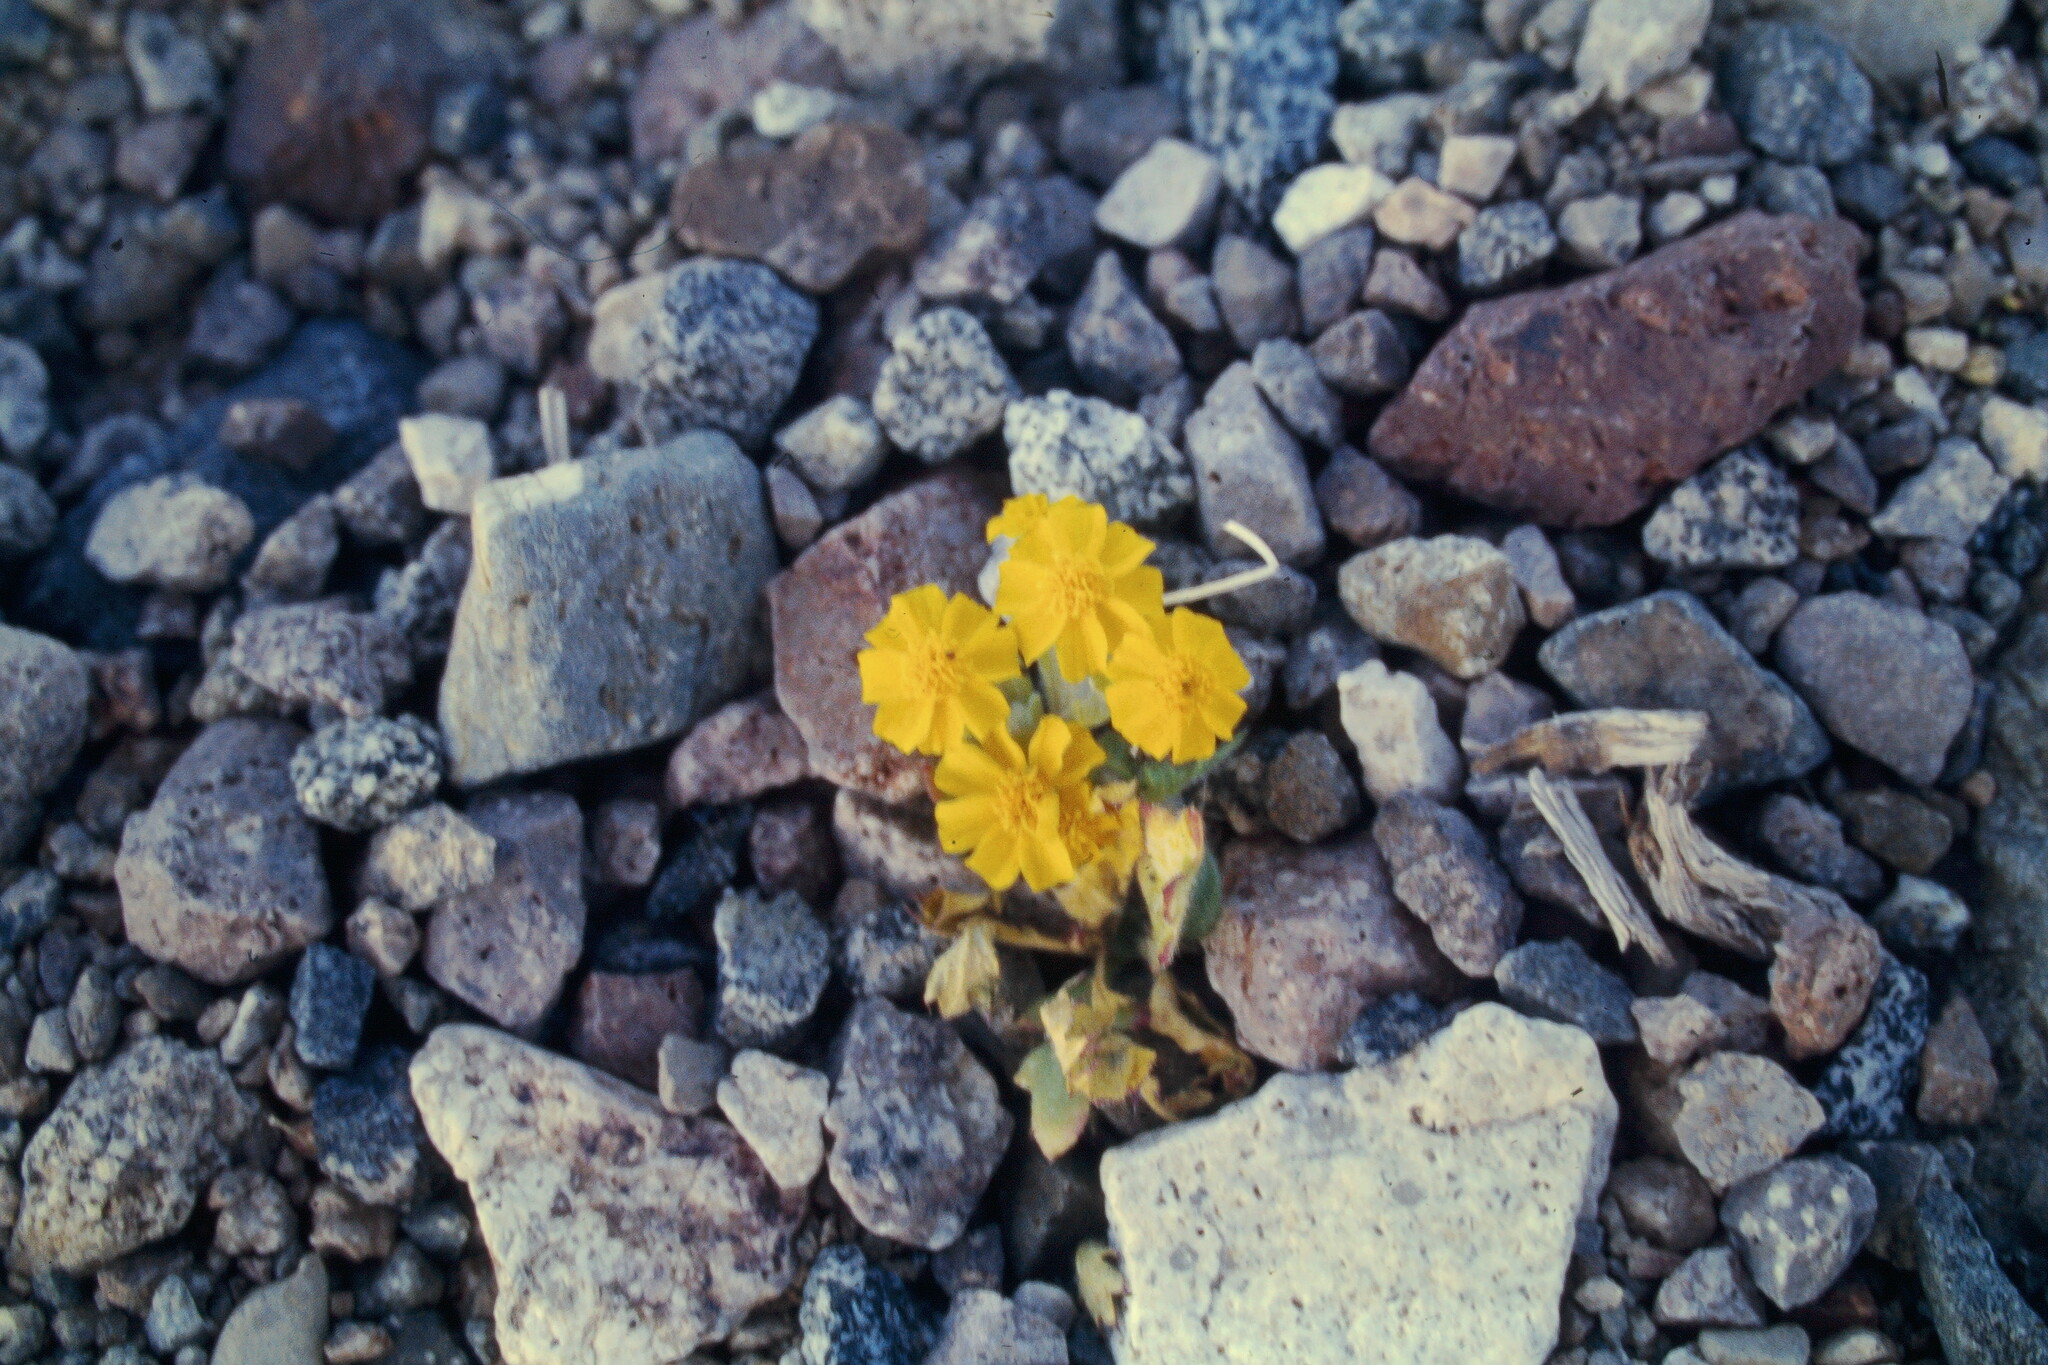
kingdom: Plantae
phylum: Tracheophyta
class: Magnoliopsida
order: Asterales
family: Asteraceae
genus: Eriophyllum
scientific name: Eriophyllum wallacei
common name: Wallace's woolly daisy
